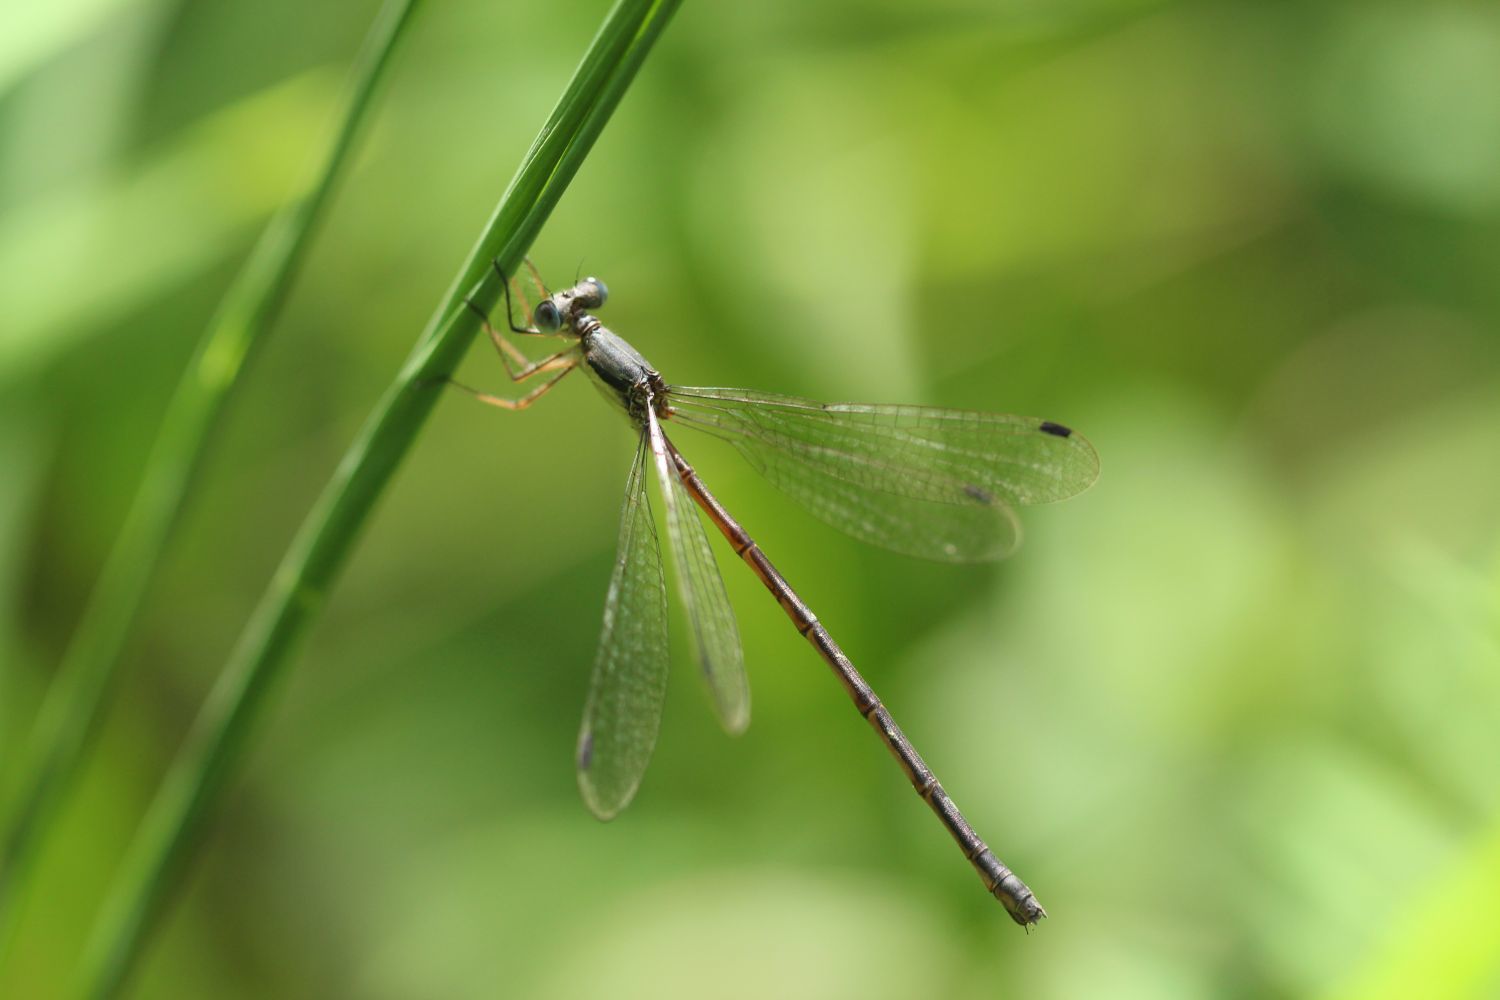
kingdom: Animalia
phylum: Arthropoda
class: Insecta
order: Odonata
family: Lestidae
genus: Lestes
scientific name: Lestes rectangularis
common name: Slender spreadwing
